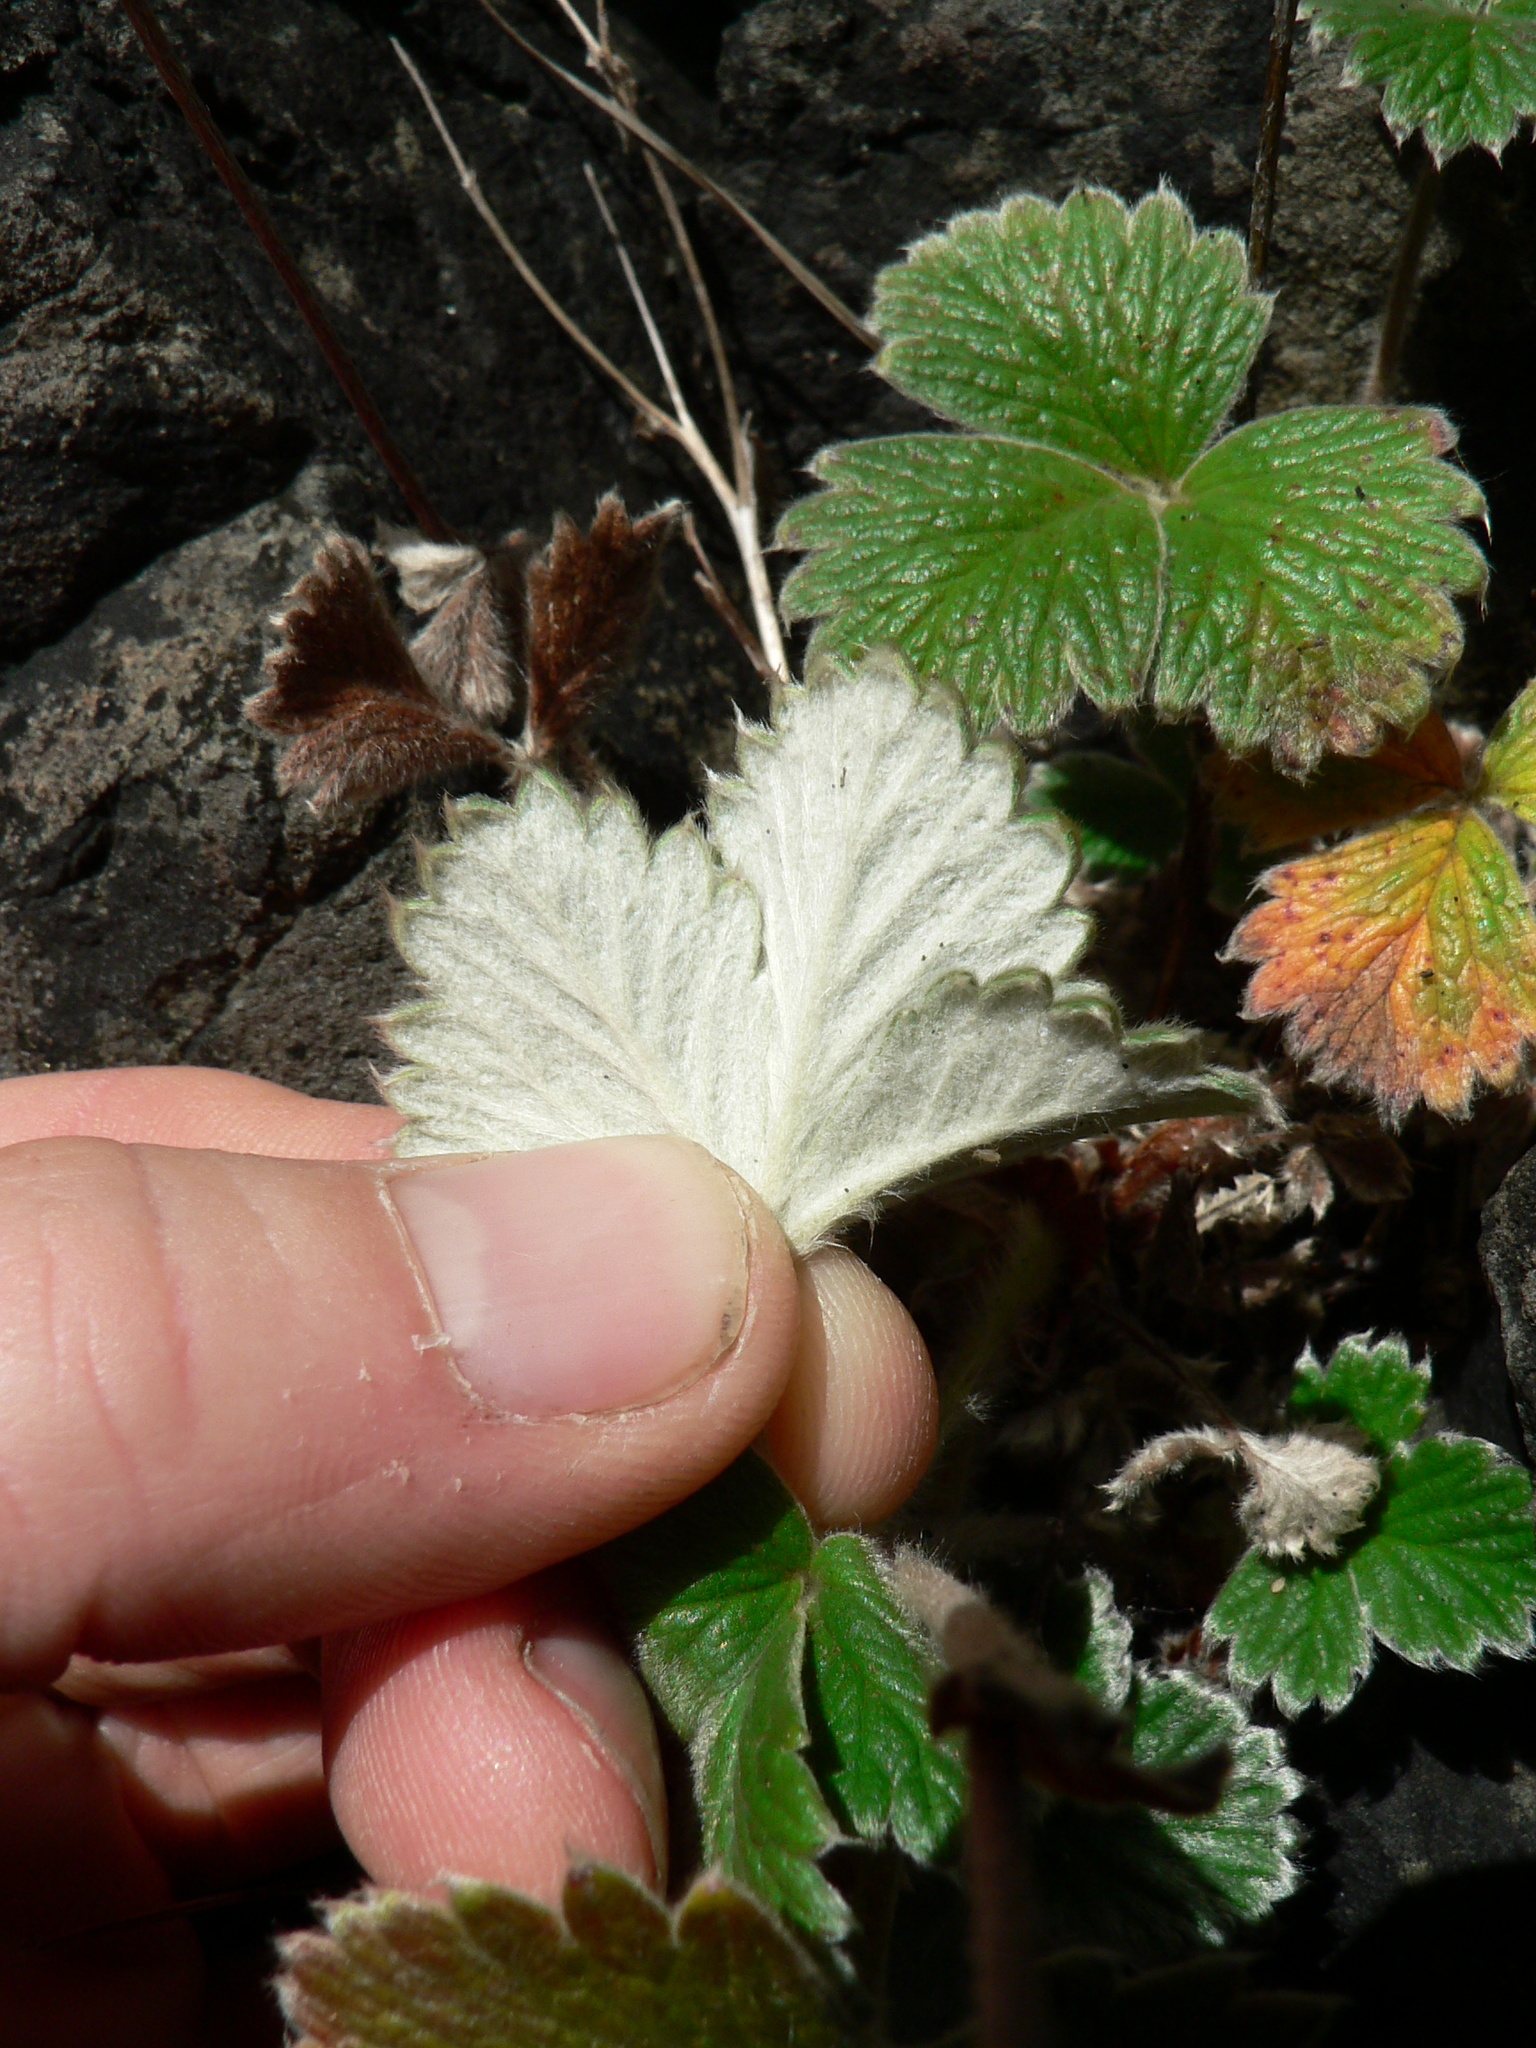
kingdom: Plantae
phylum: Tracheophyta
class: Magnoliopsida
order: Rosales
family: Rosaceae
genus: Potentilla
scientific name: Potentilla villosa
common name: Northern cinquefoil
